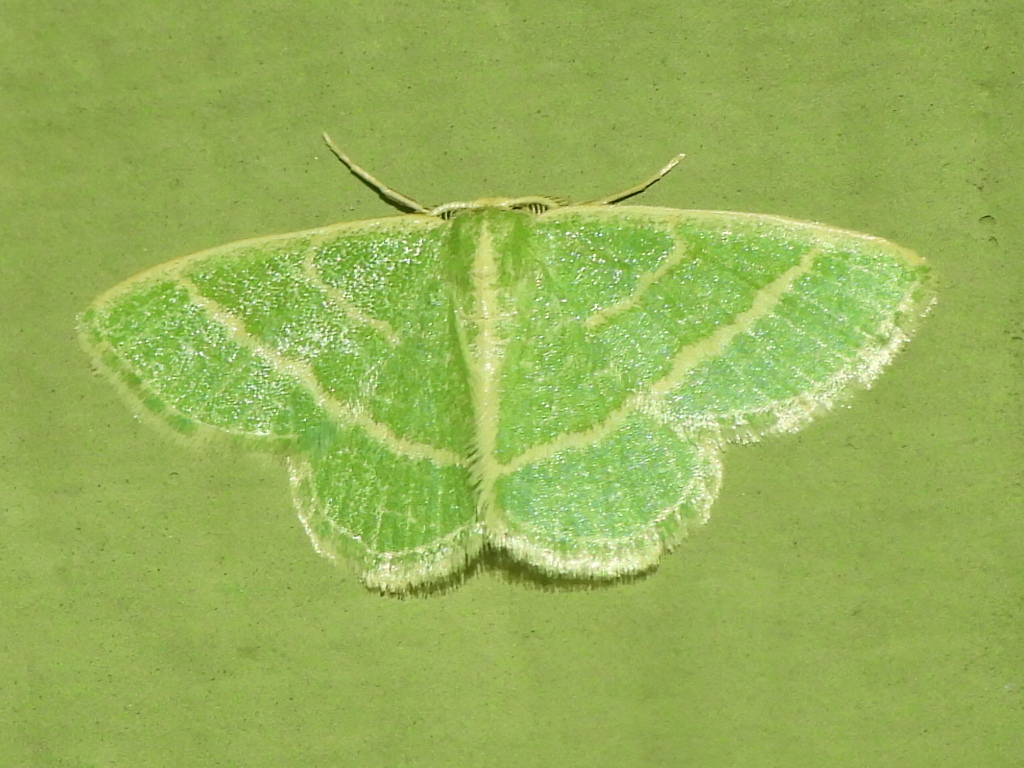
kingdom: Animalia
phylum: Arthropoda
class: Insecta
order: Lepidoptera
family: Geometridae
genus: Chlorochlamys
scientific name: Chlorochlamys chloroleucaria
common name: Blackberry looper
